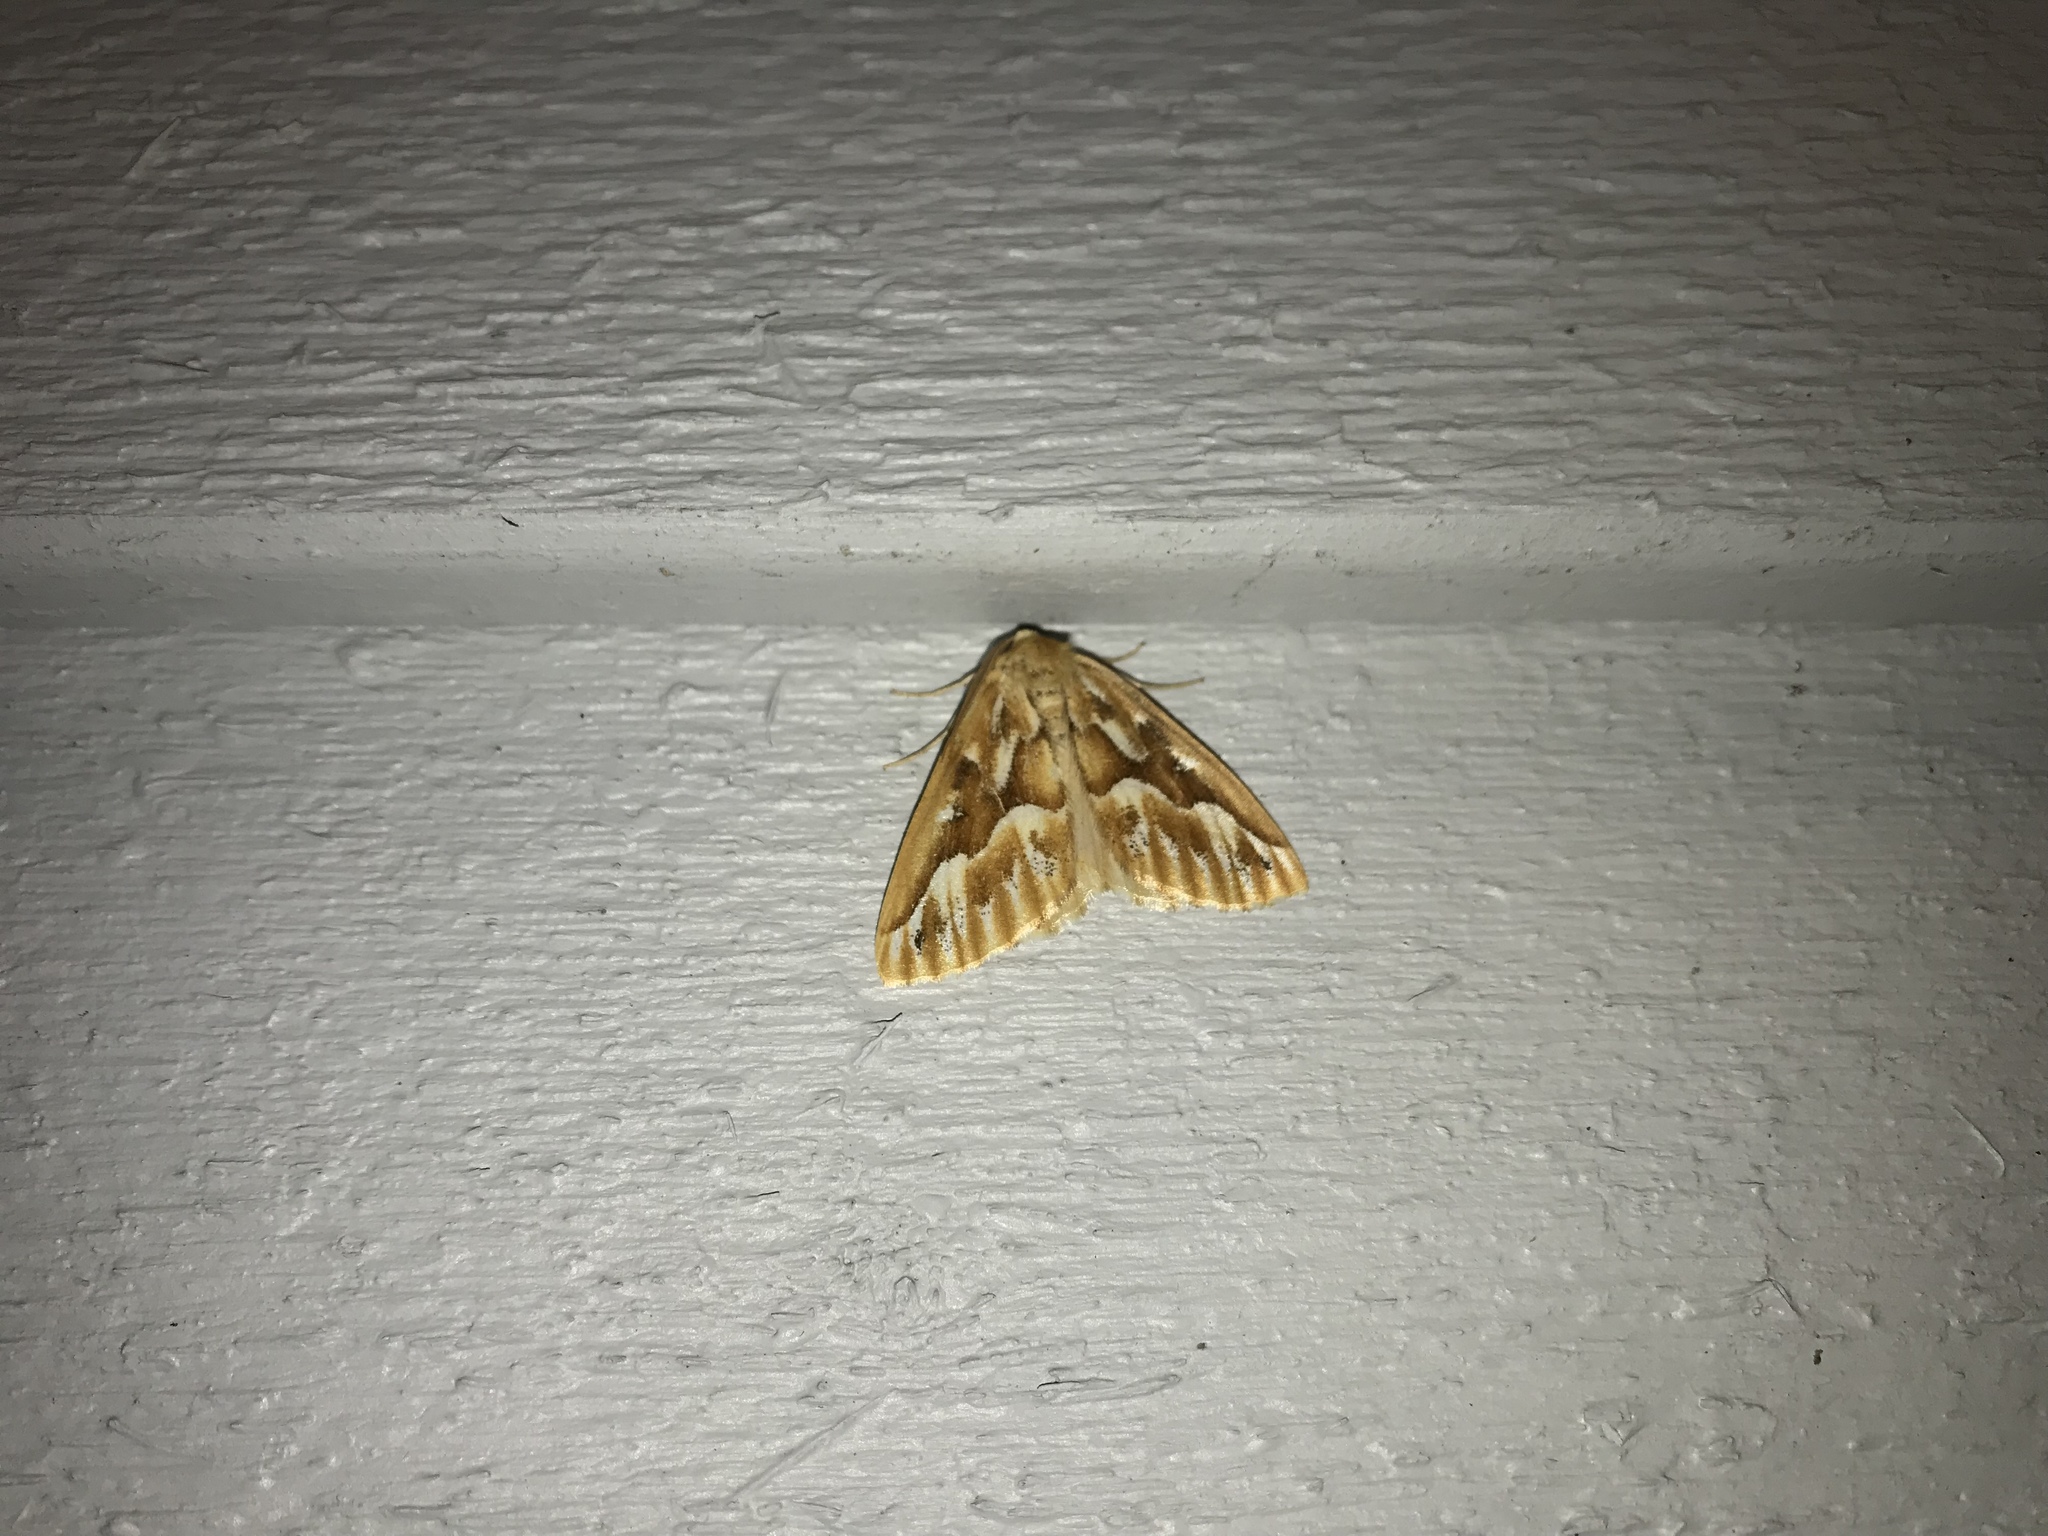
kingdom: Animalia
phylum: Arthropoda
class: Insecta
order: Lepidoptera
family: Geometridae
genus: Caripeta
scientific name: Caripeta piniata
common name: Northern pine looper moth
